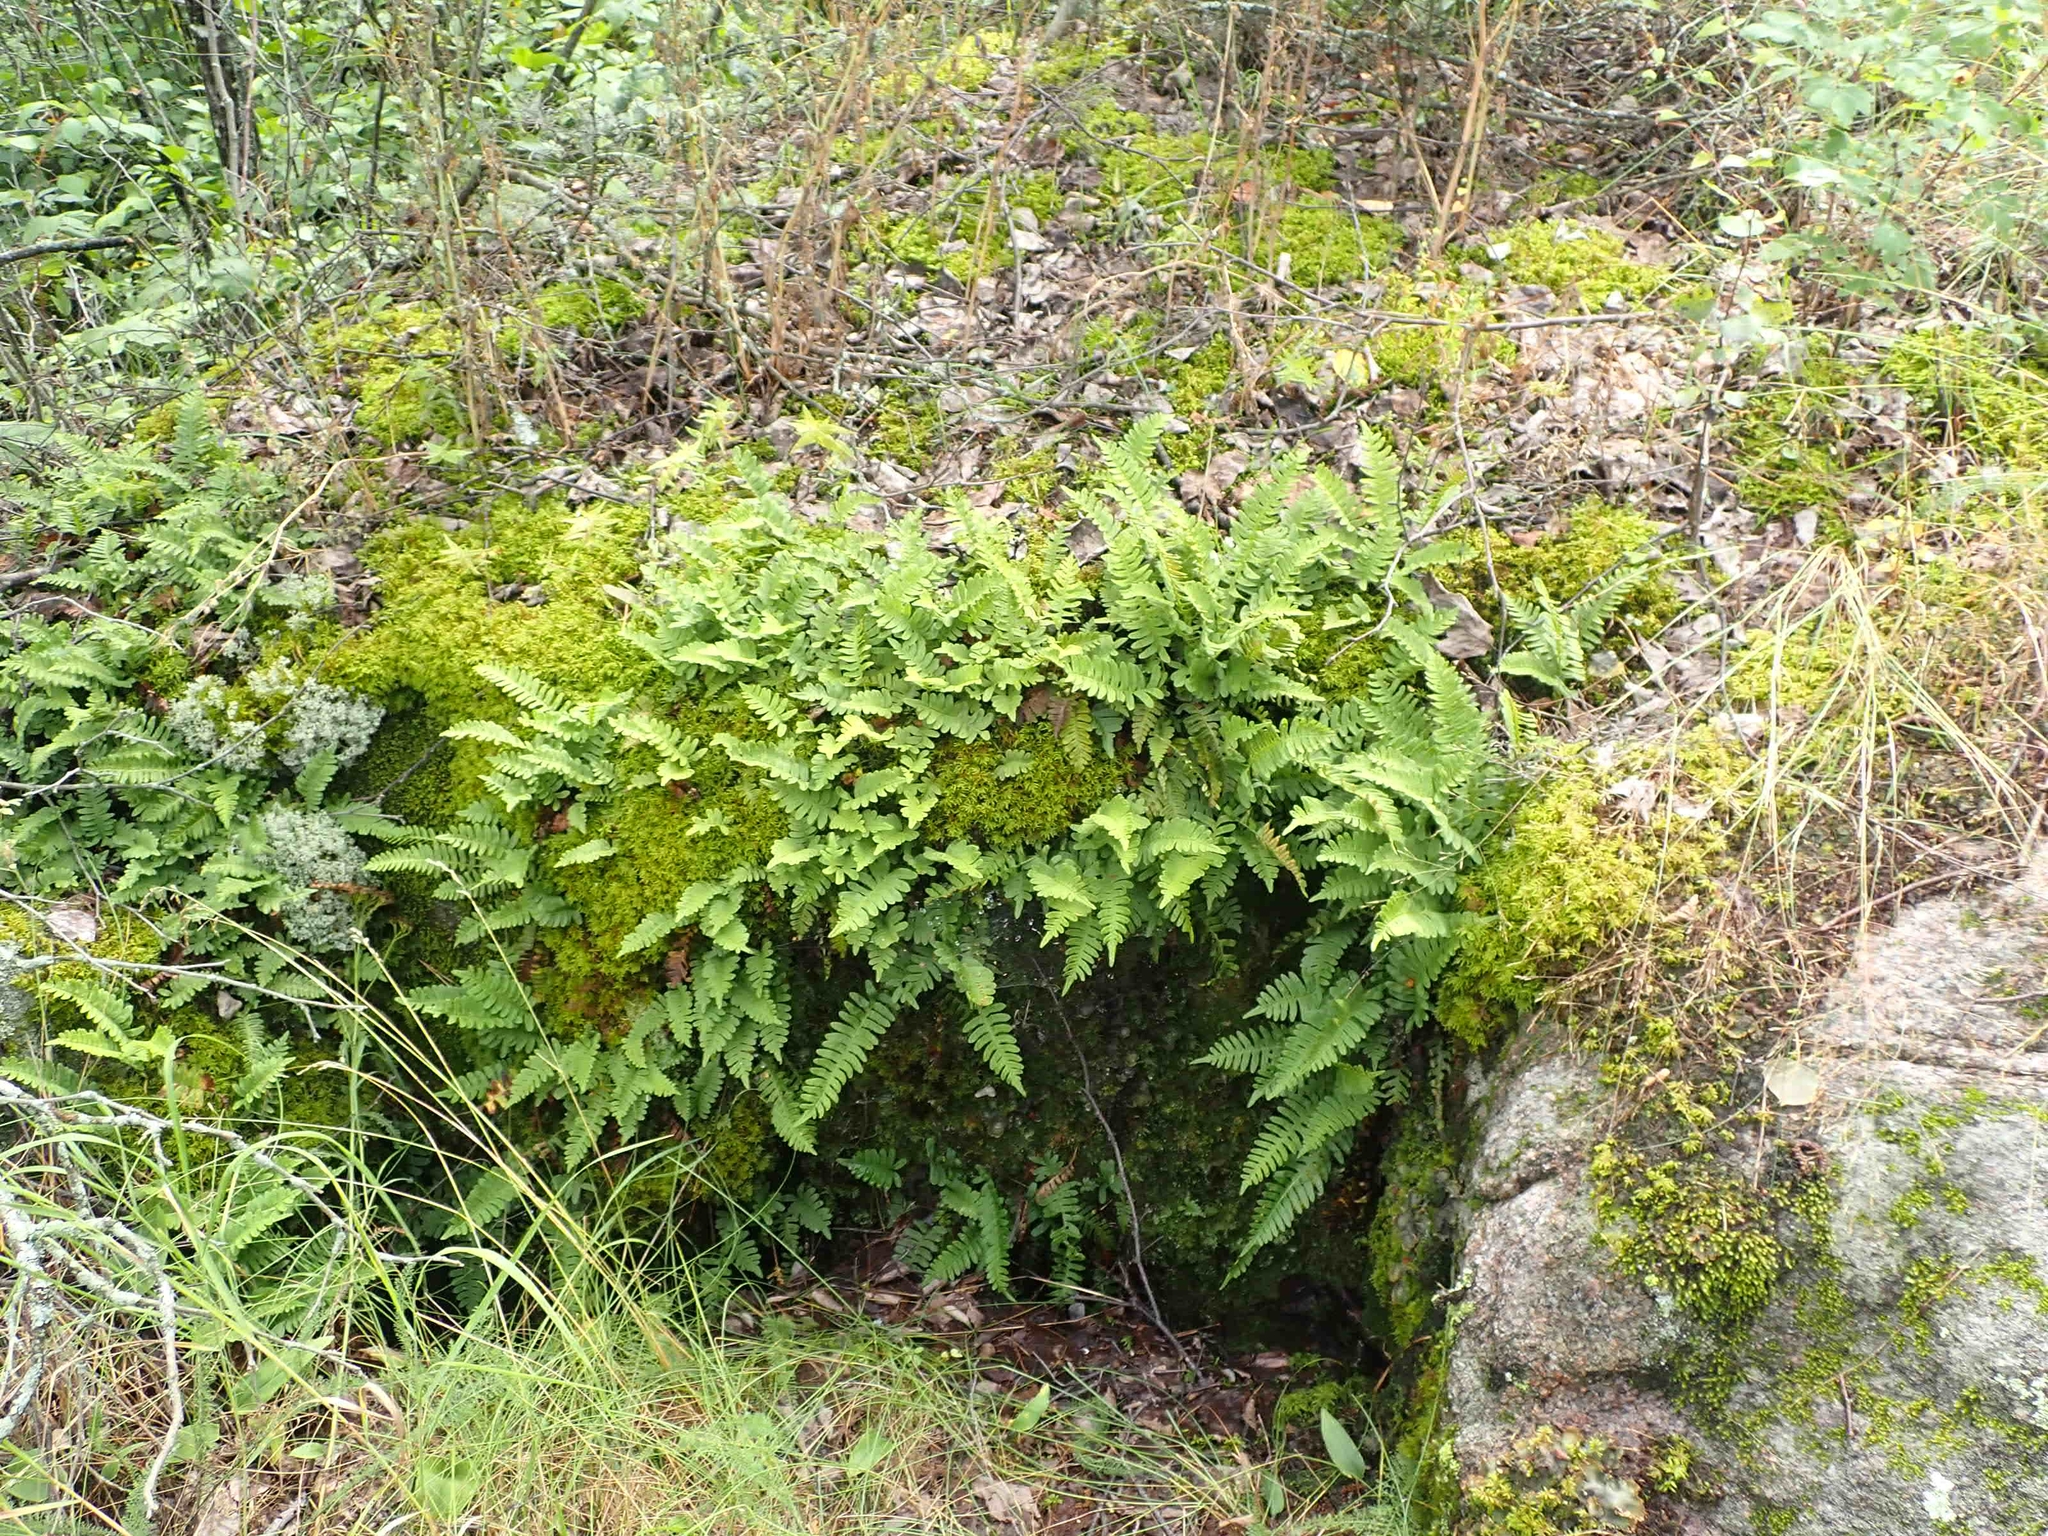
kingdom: Plantae
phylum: Tracheophyta
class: Polypodiopsida
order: Polypodiales
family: Polypodiaceae
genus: Polypodium
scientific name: Polypodium virginianum
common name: American wall fern
